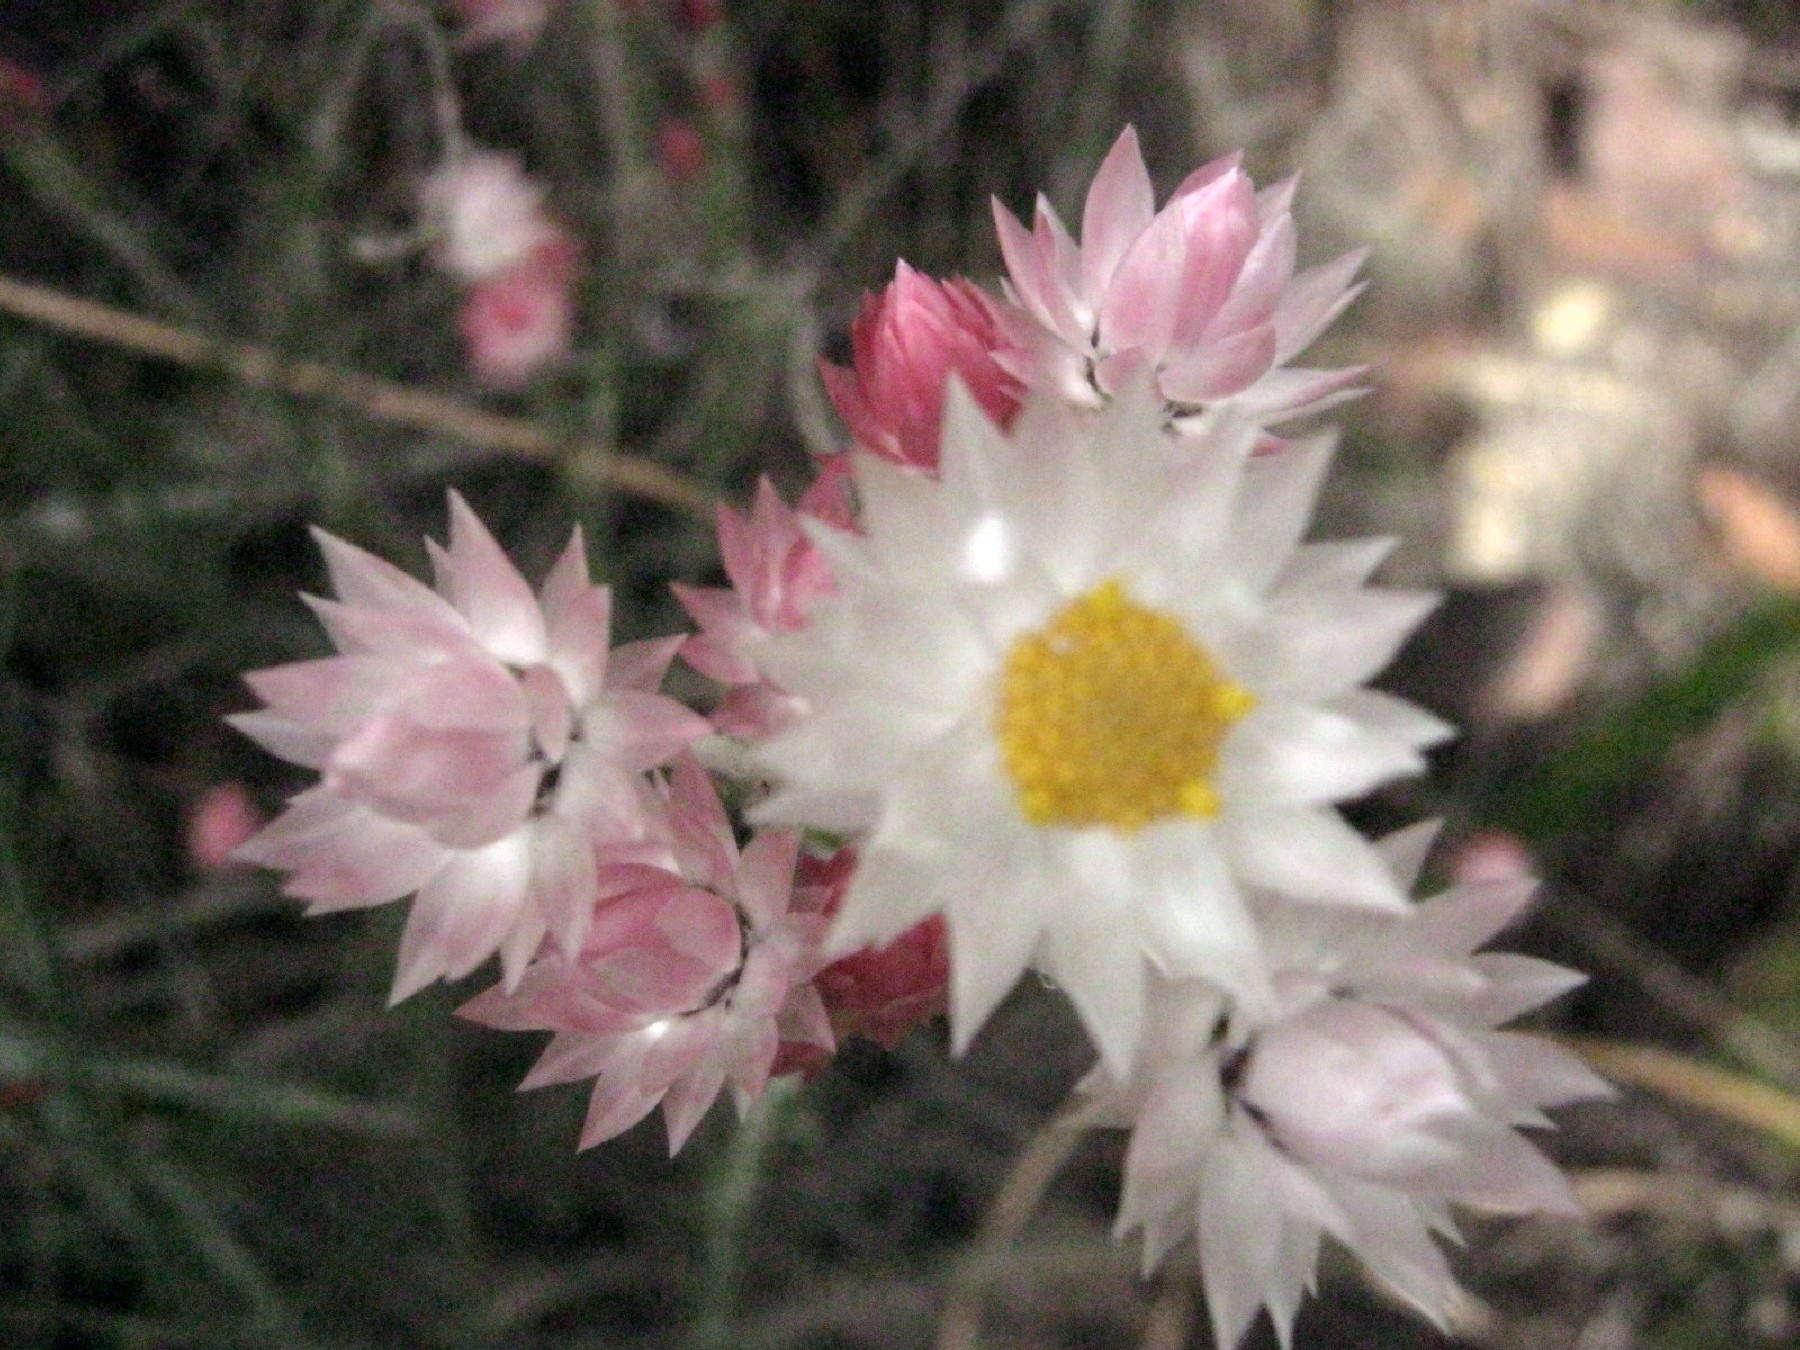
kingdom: Plantae
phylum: Tracheophyta
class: Magnoliopsida
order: Asterales
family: Asteraceae
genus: Achyranthemum
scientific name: Achyranthemum paniculatum
